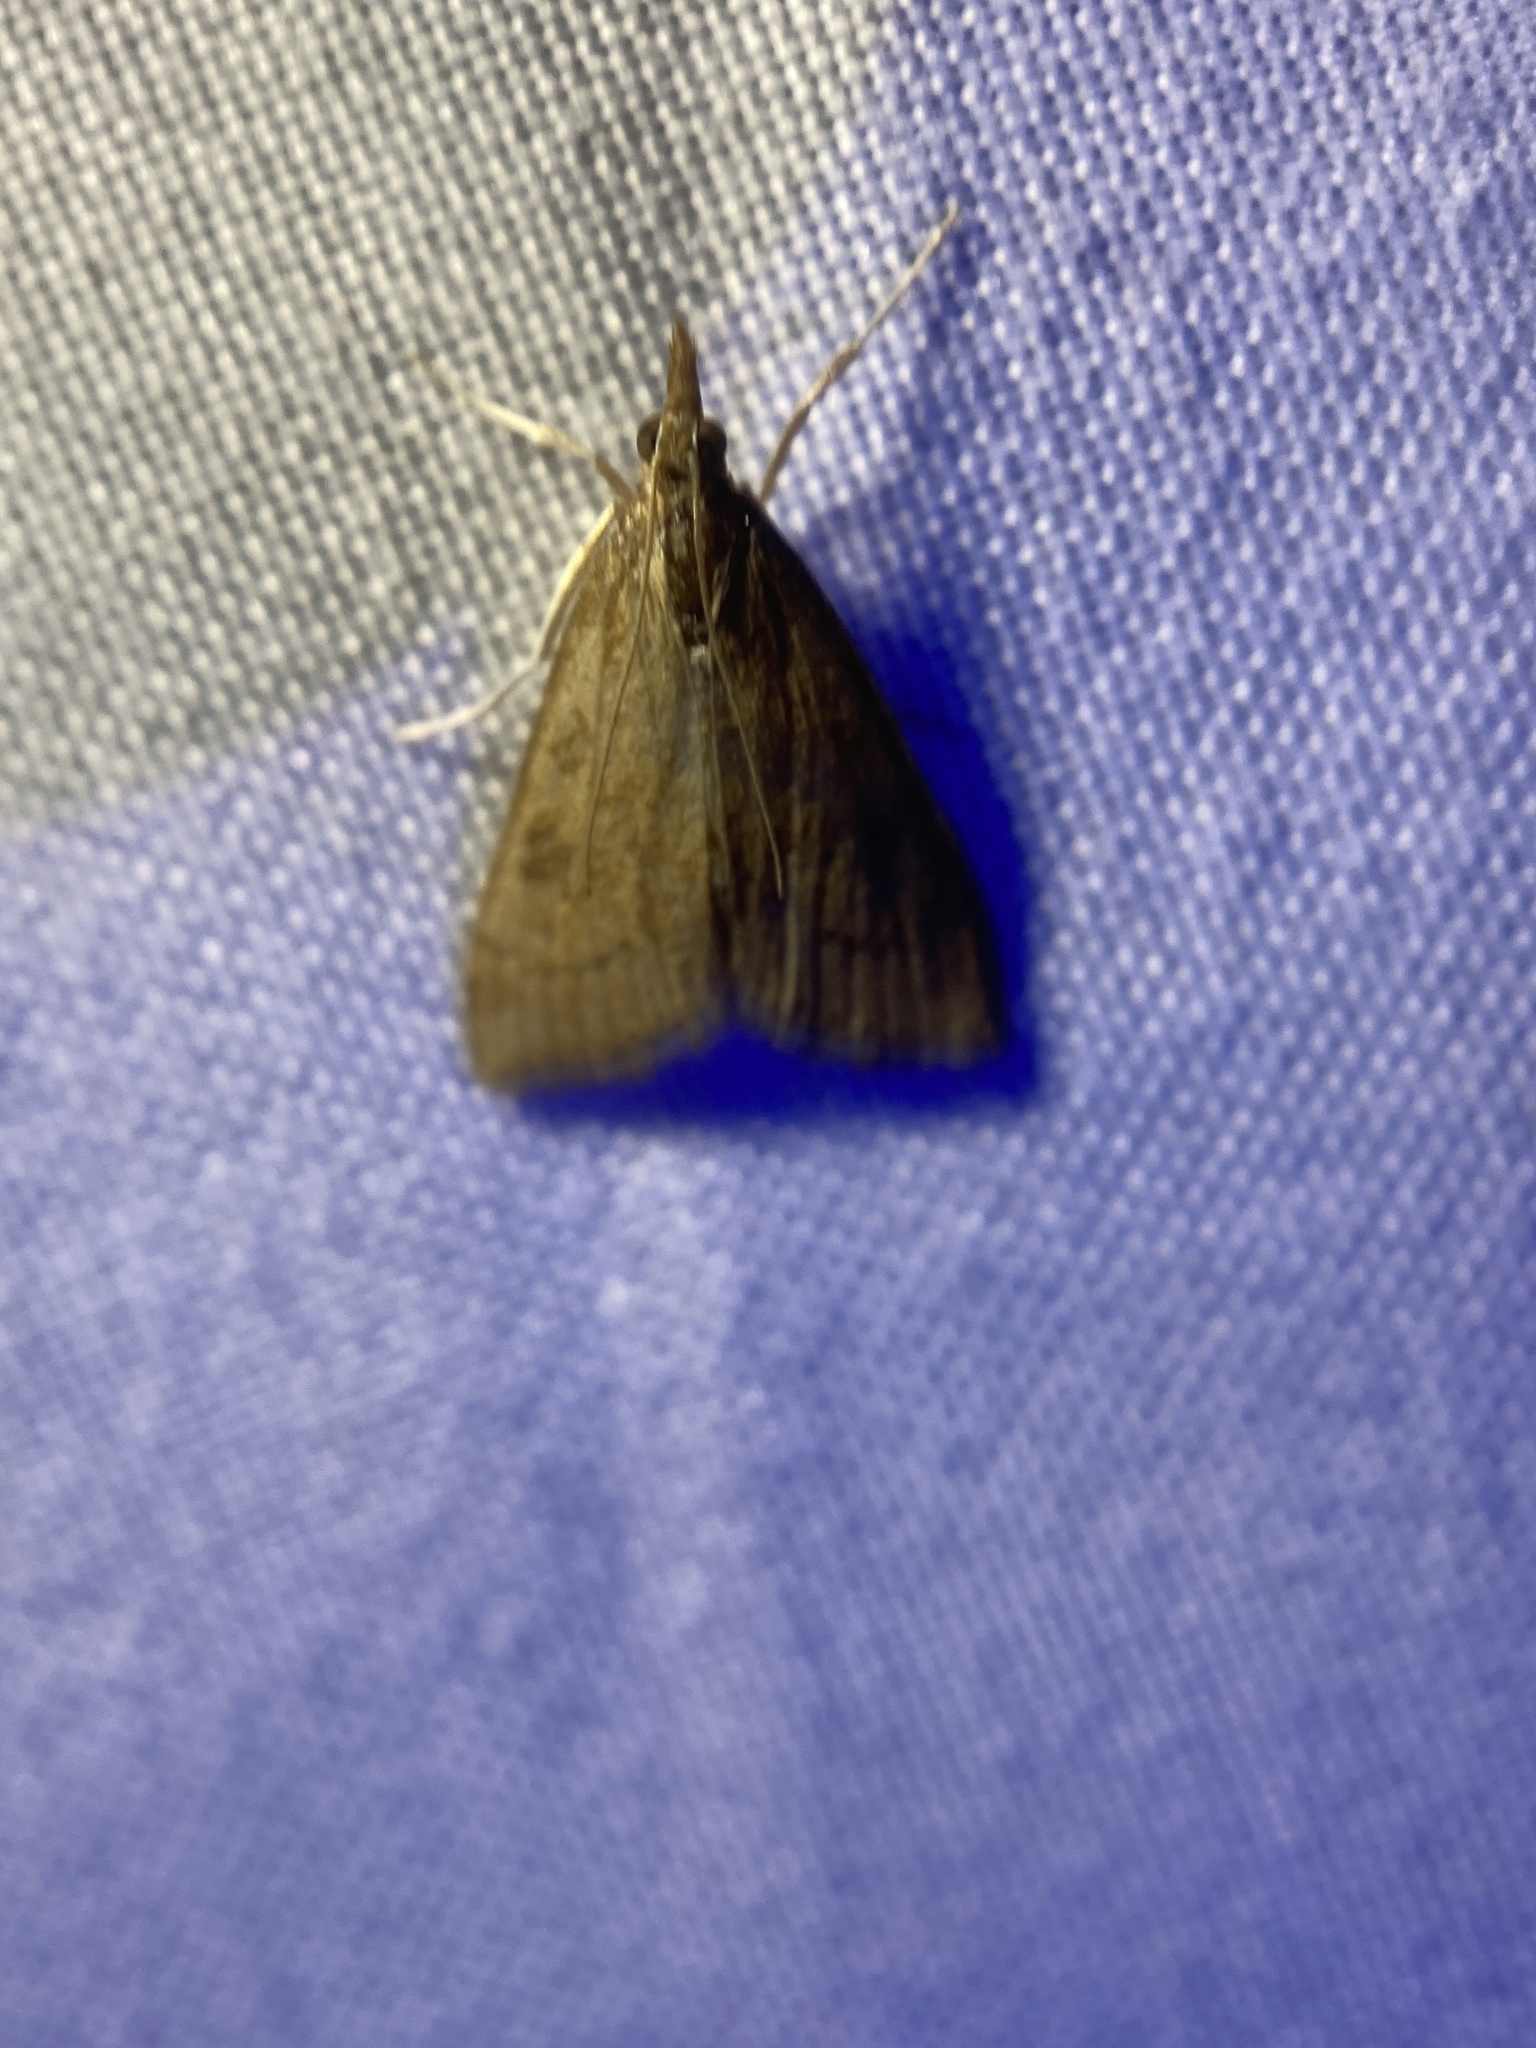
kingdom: Animalia
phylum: Arthropoda
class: Insecta
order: Lepidoptera
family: Crambidae
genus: Udea
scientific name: Udea rubigalis
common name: Celery leaftier moth
